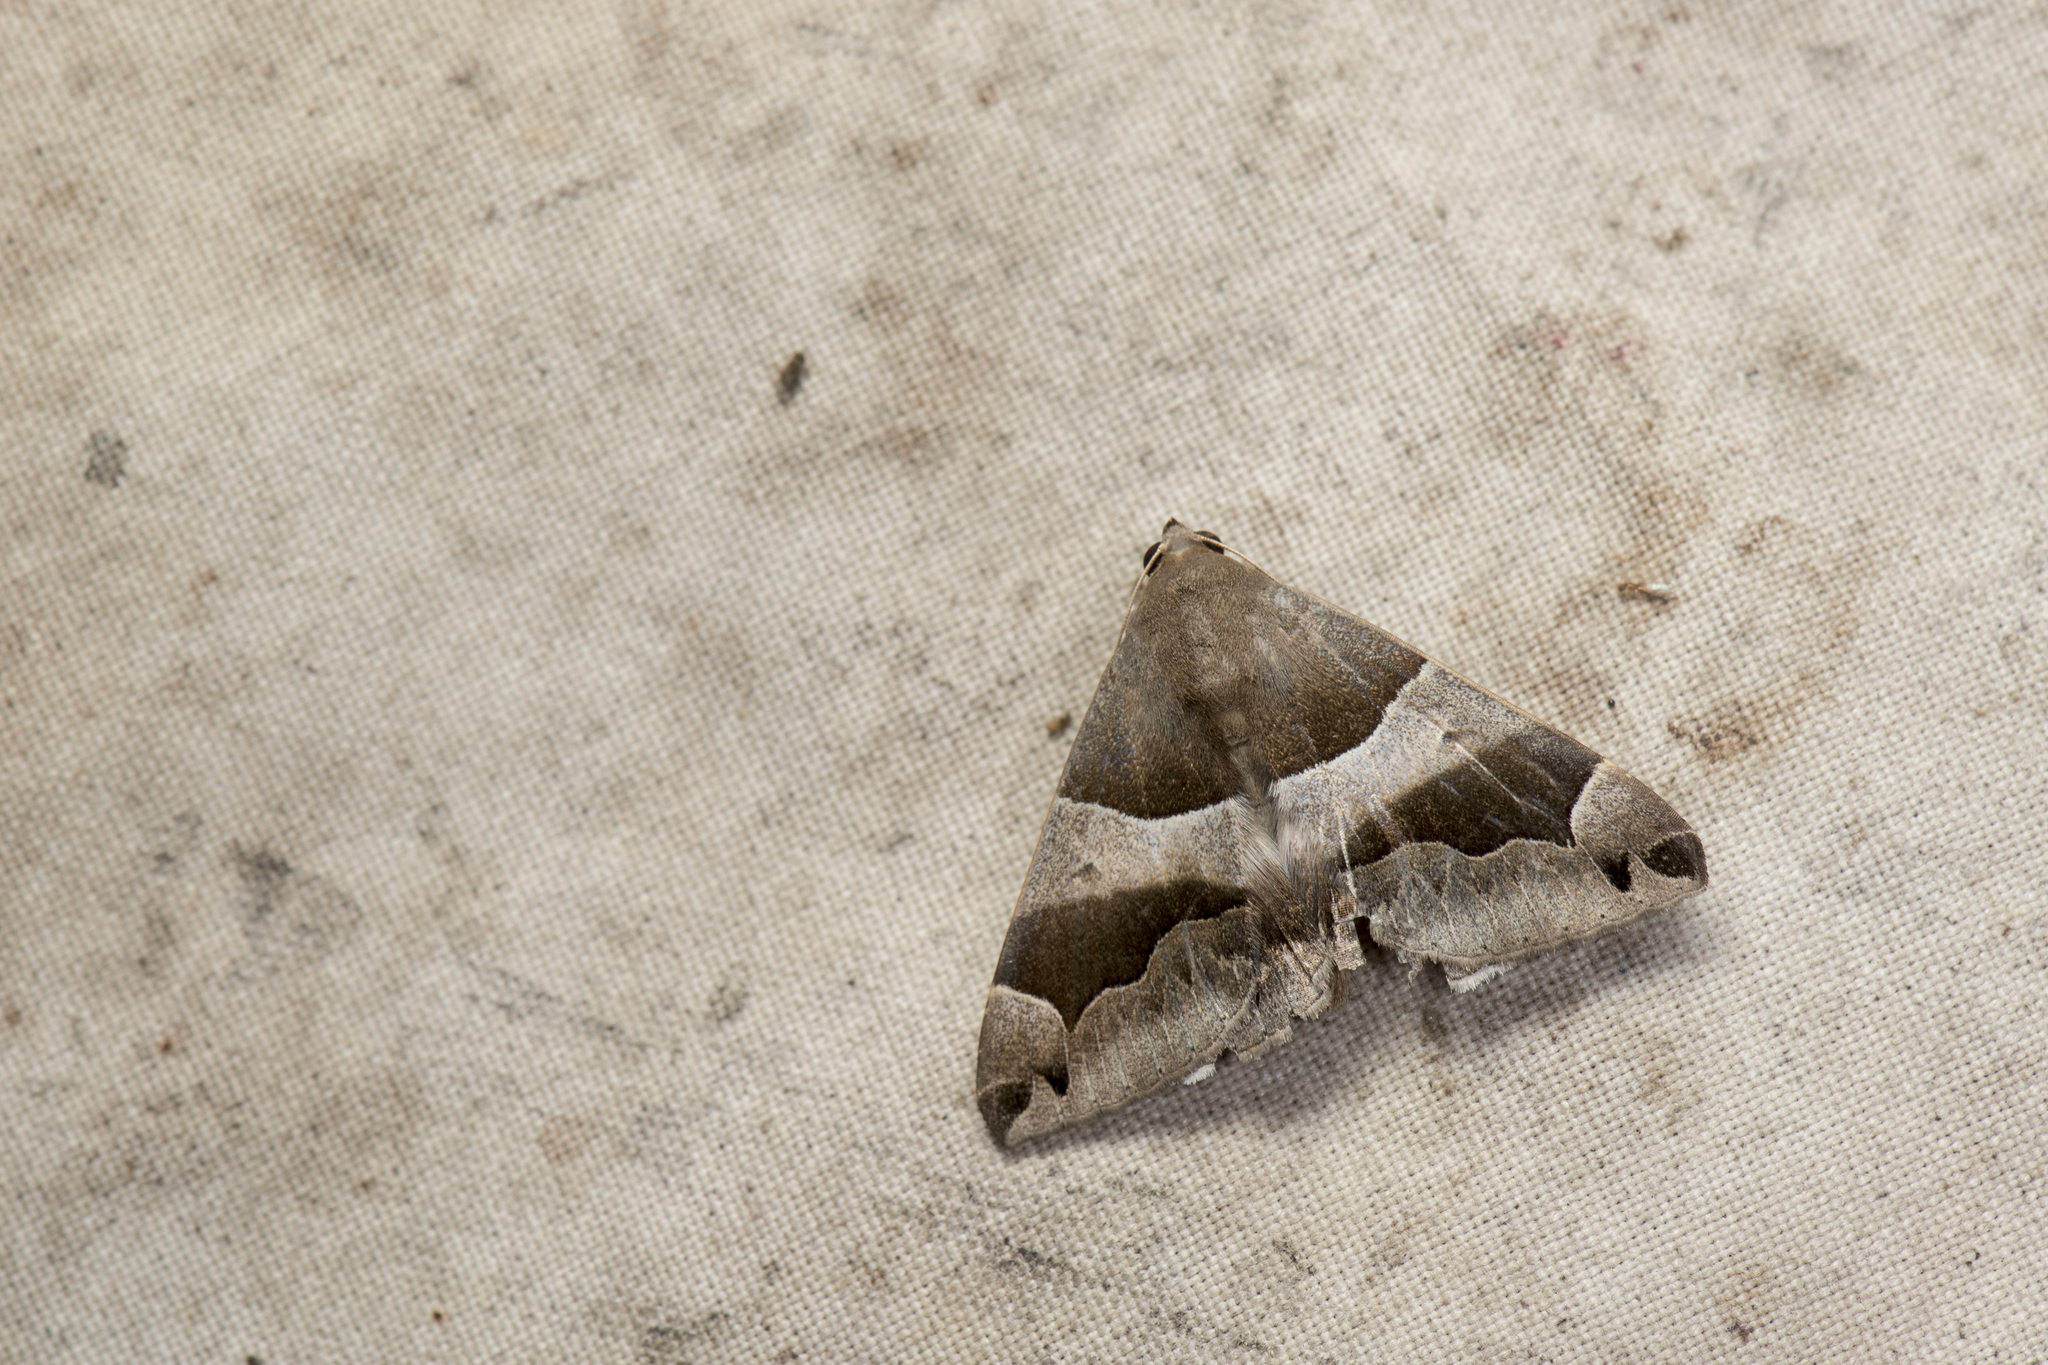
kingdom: Animalia
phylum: Arthropoda
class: Insecta
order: Lepidoptera
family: Erebidae
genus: Dysgonia
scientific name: Dysgonia stuposa
